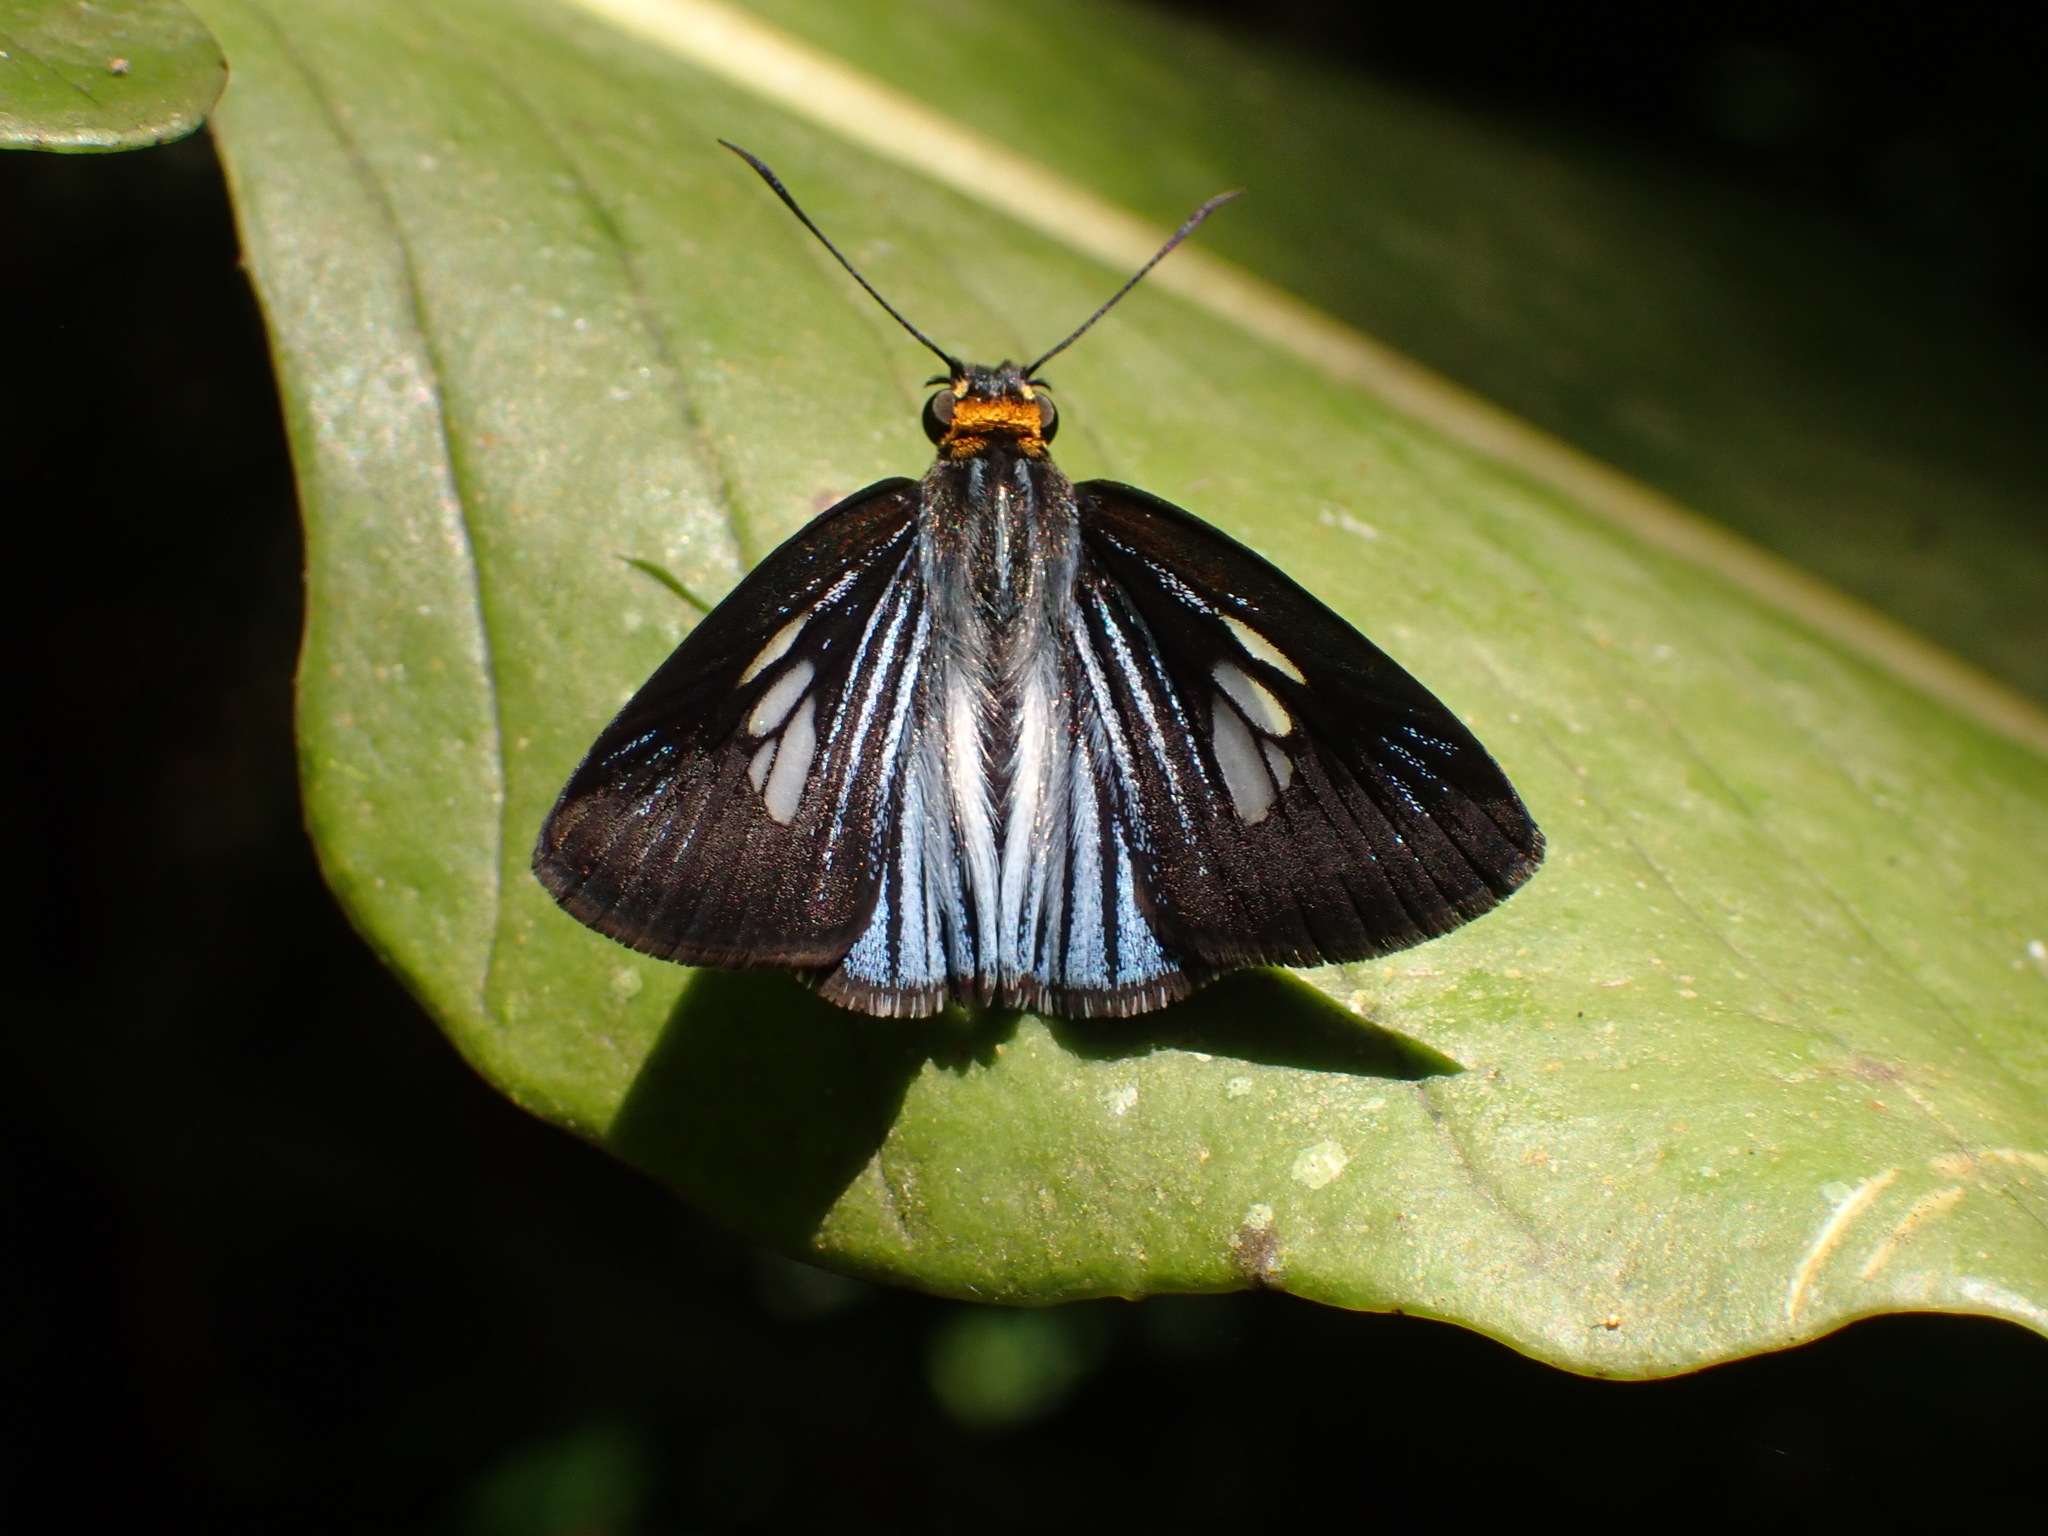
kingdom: Animalia
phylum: Arthropoda
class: Insecta
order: Lepidoptera
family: Hesperiidae
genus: Pythonides
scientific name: Pythonides lancea
